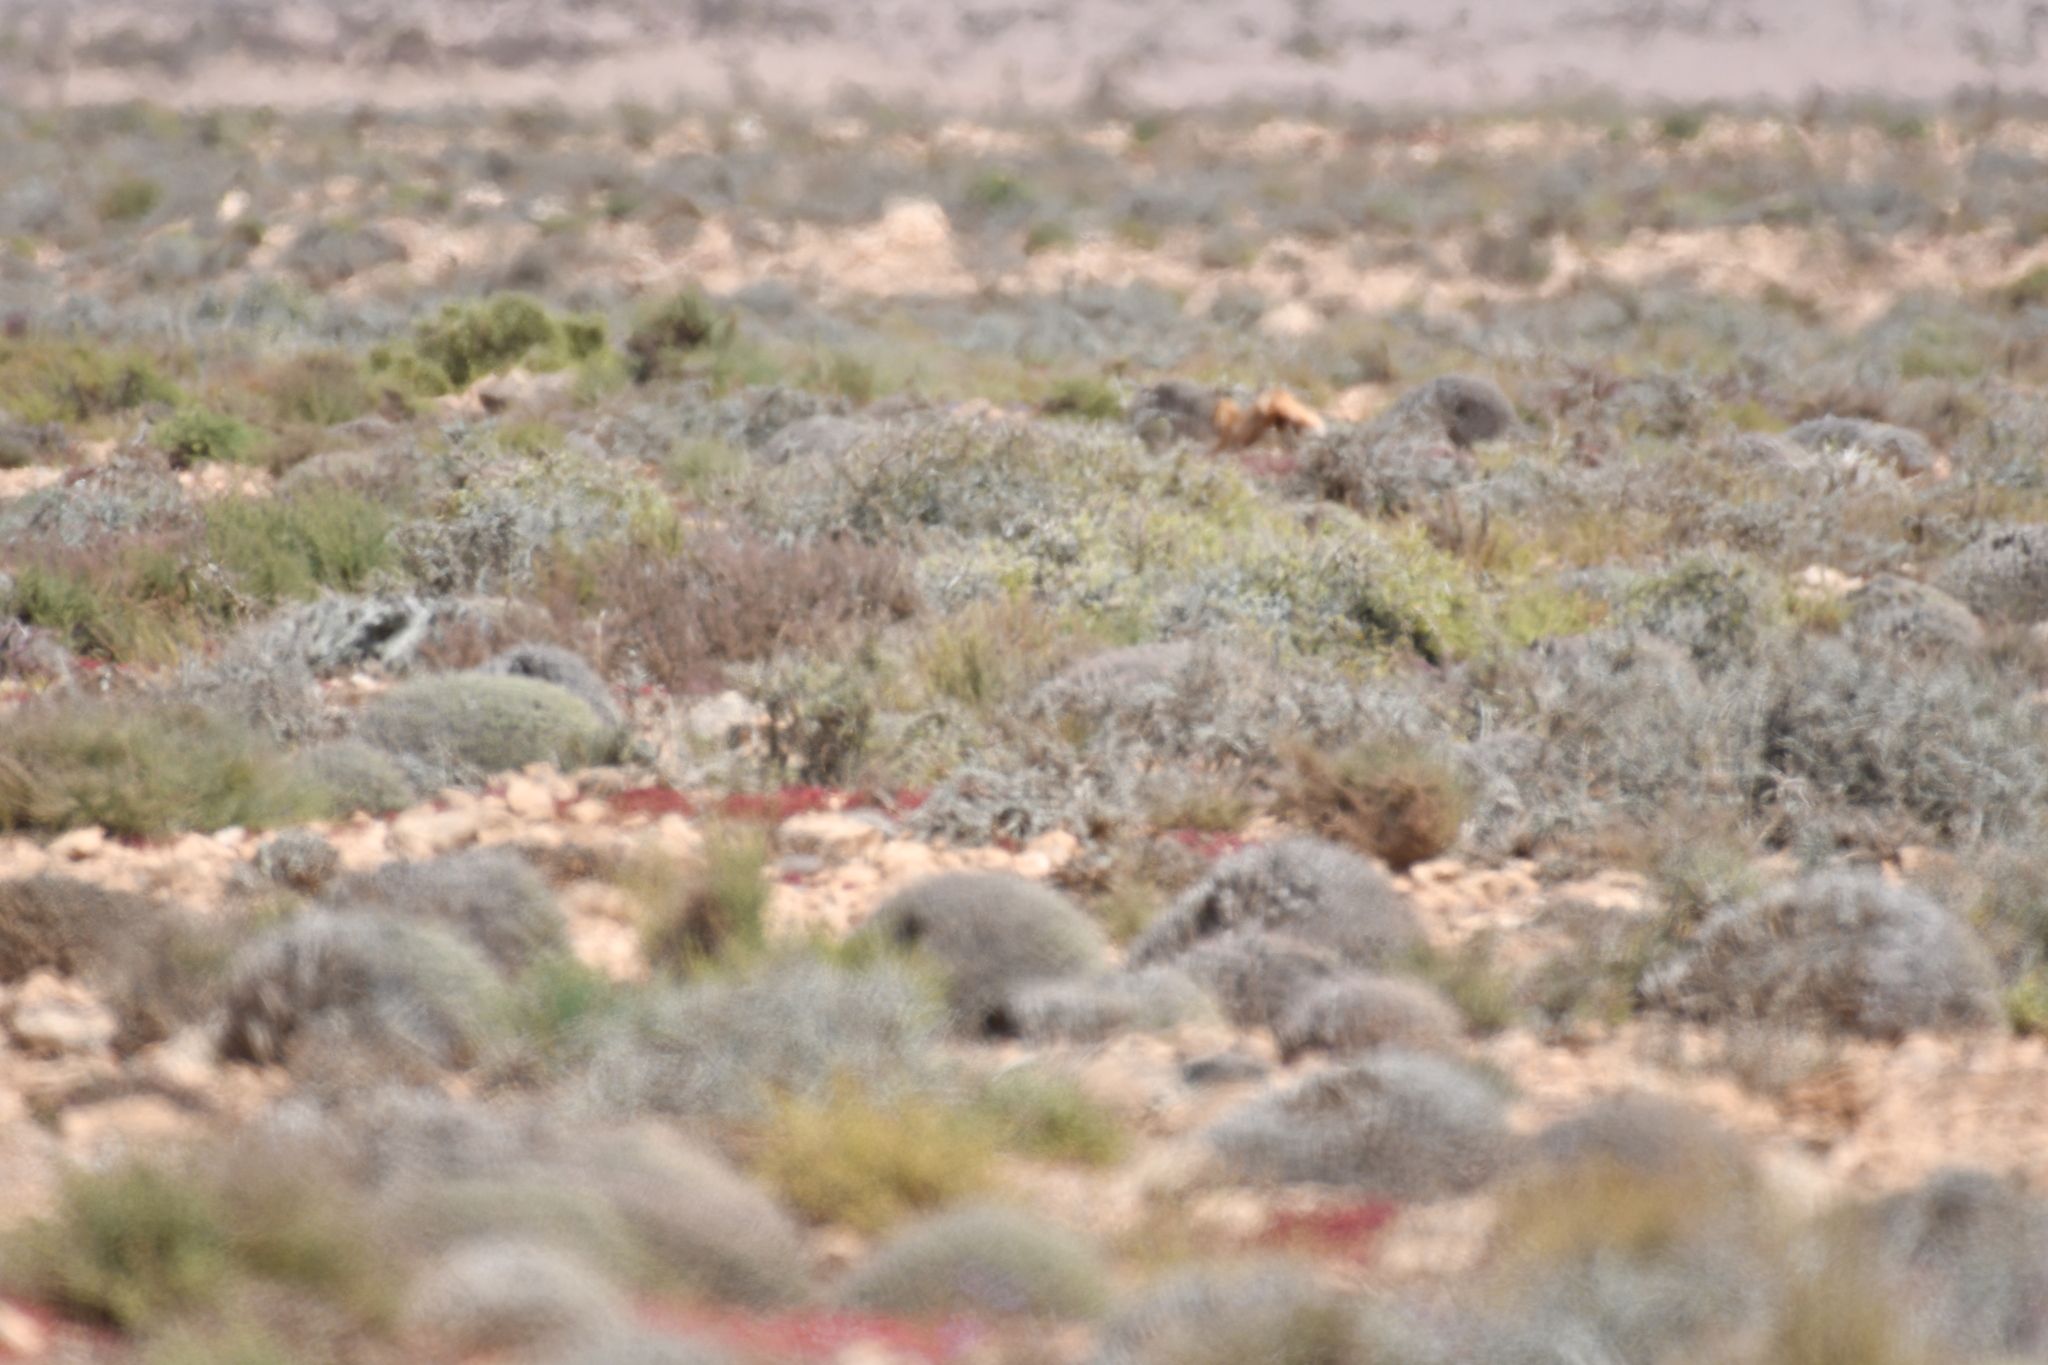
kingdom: Animalia
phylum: Chordata
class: Mammalia
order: Carnivora
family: Canidae
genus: Vulpes
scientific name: Vulpes vulpes
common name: Red fox
